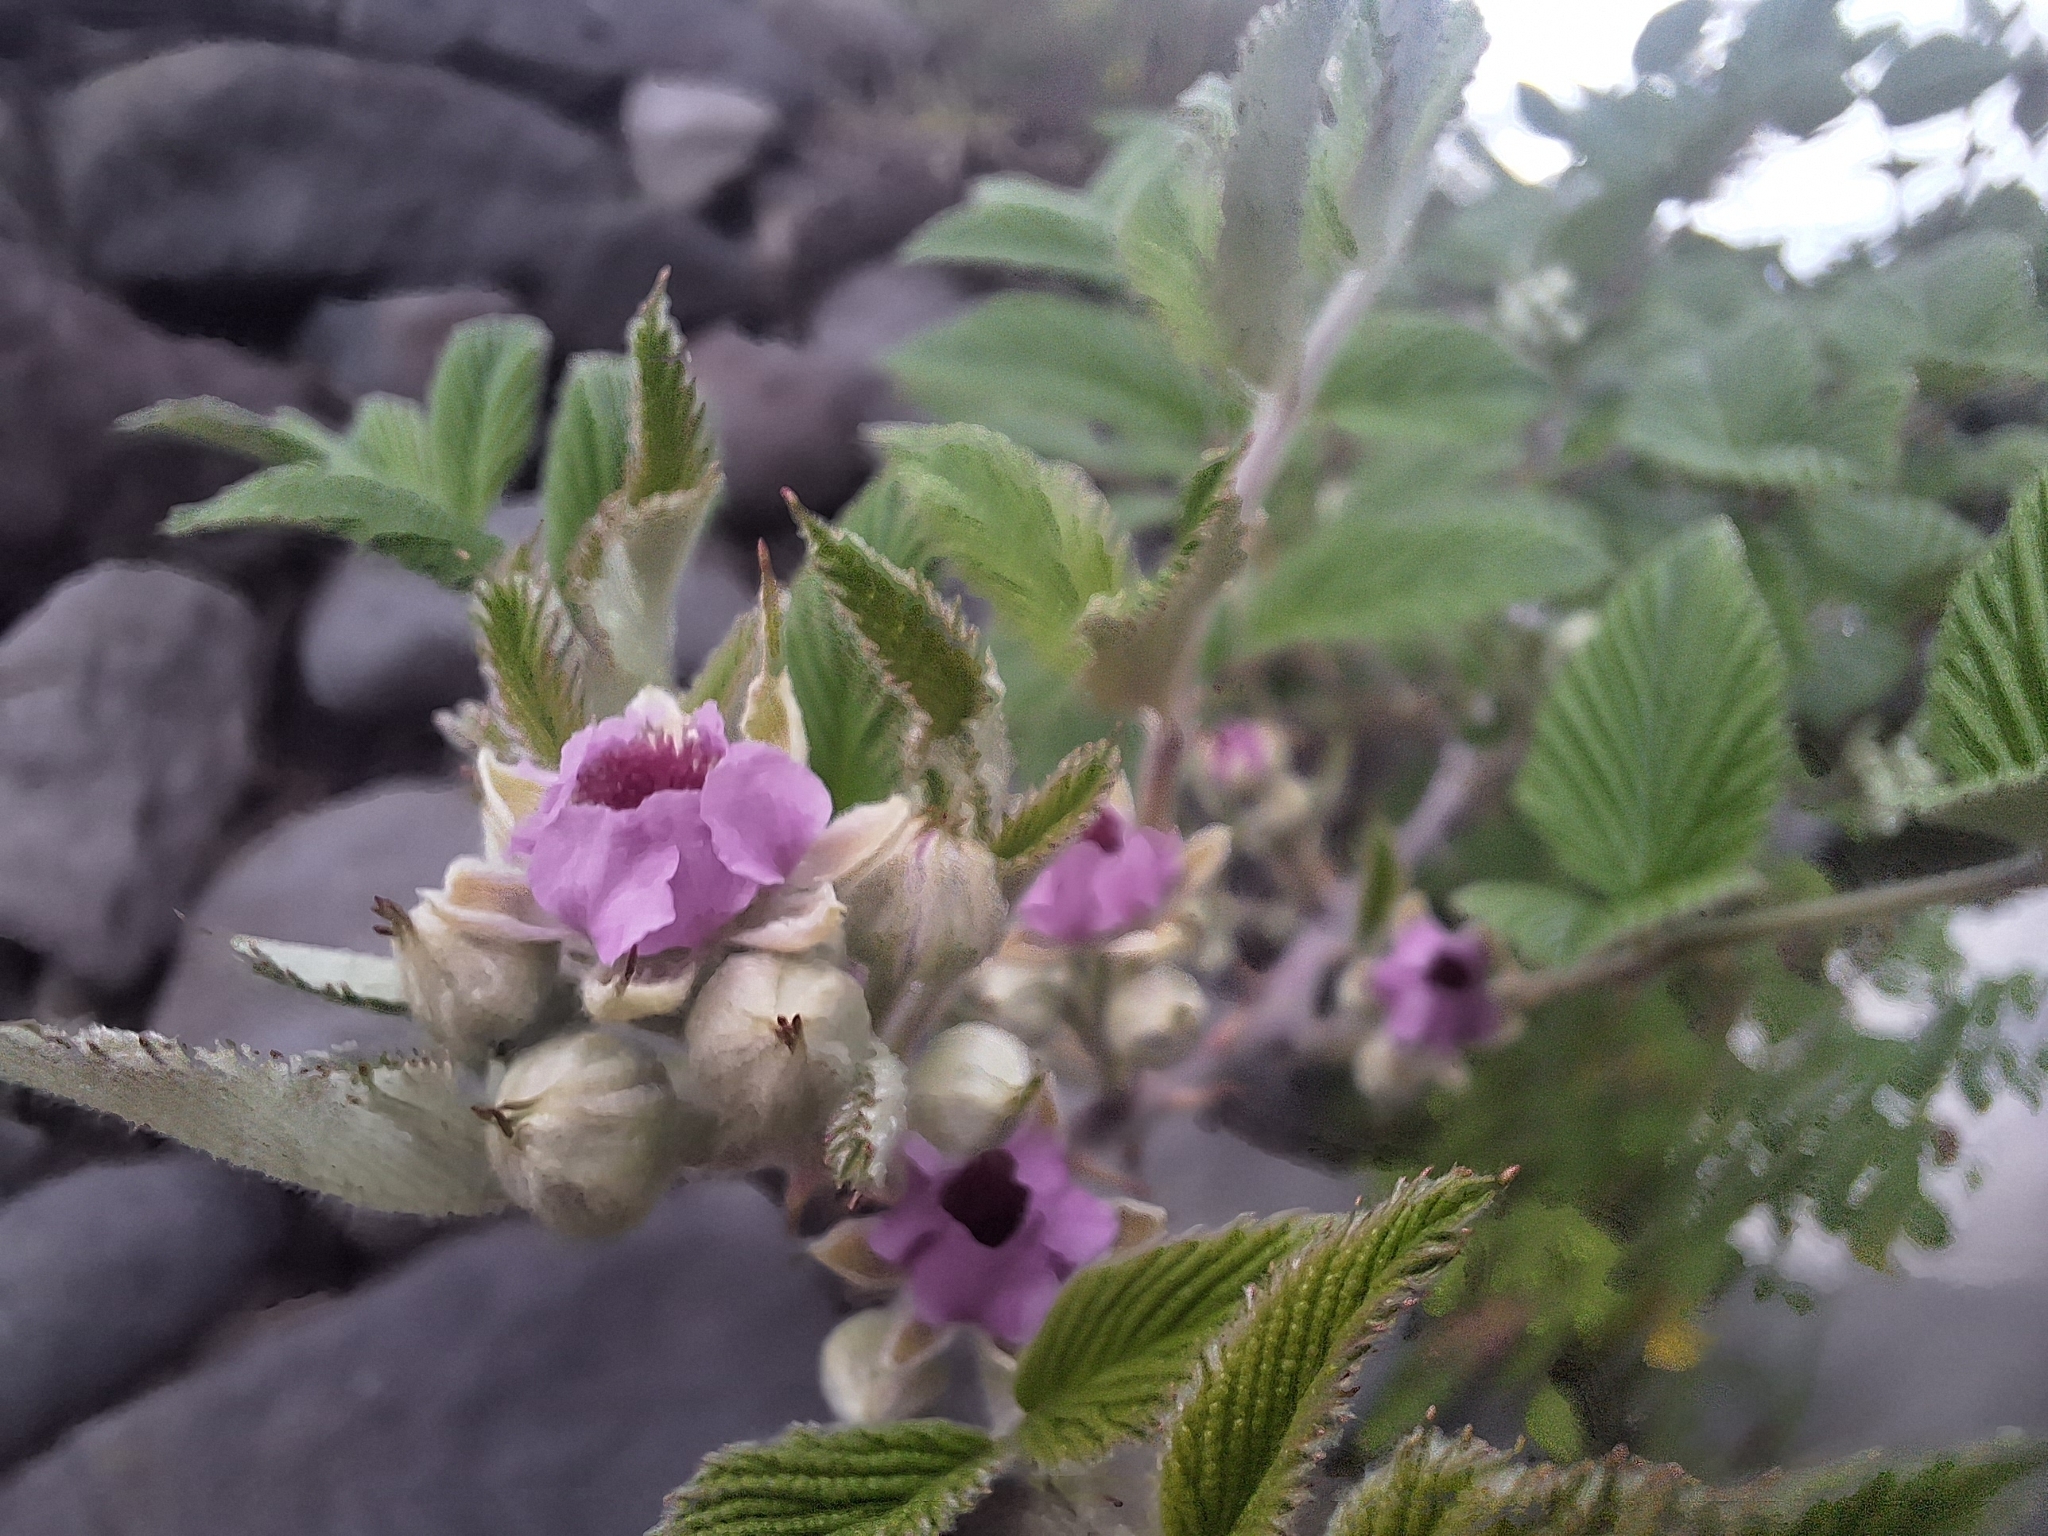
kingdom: Plantae
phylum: Tracheophyta
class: Magnoliopsida
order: Rosales
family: Rosaceae
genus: Rubus
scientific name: Rubus niveus
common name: Snowpeaks raspberry
